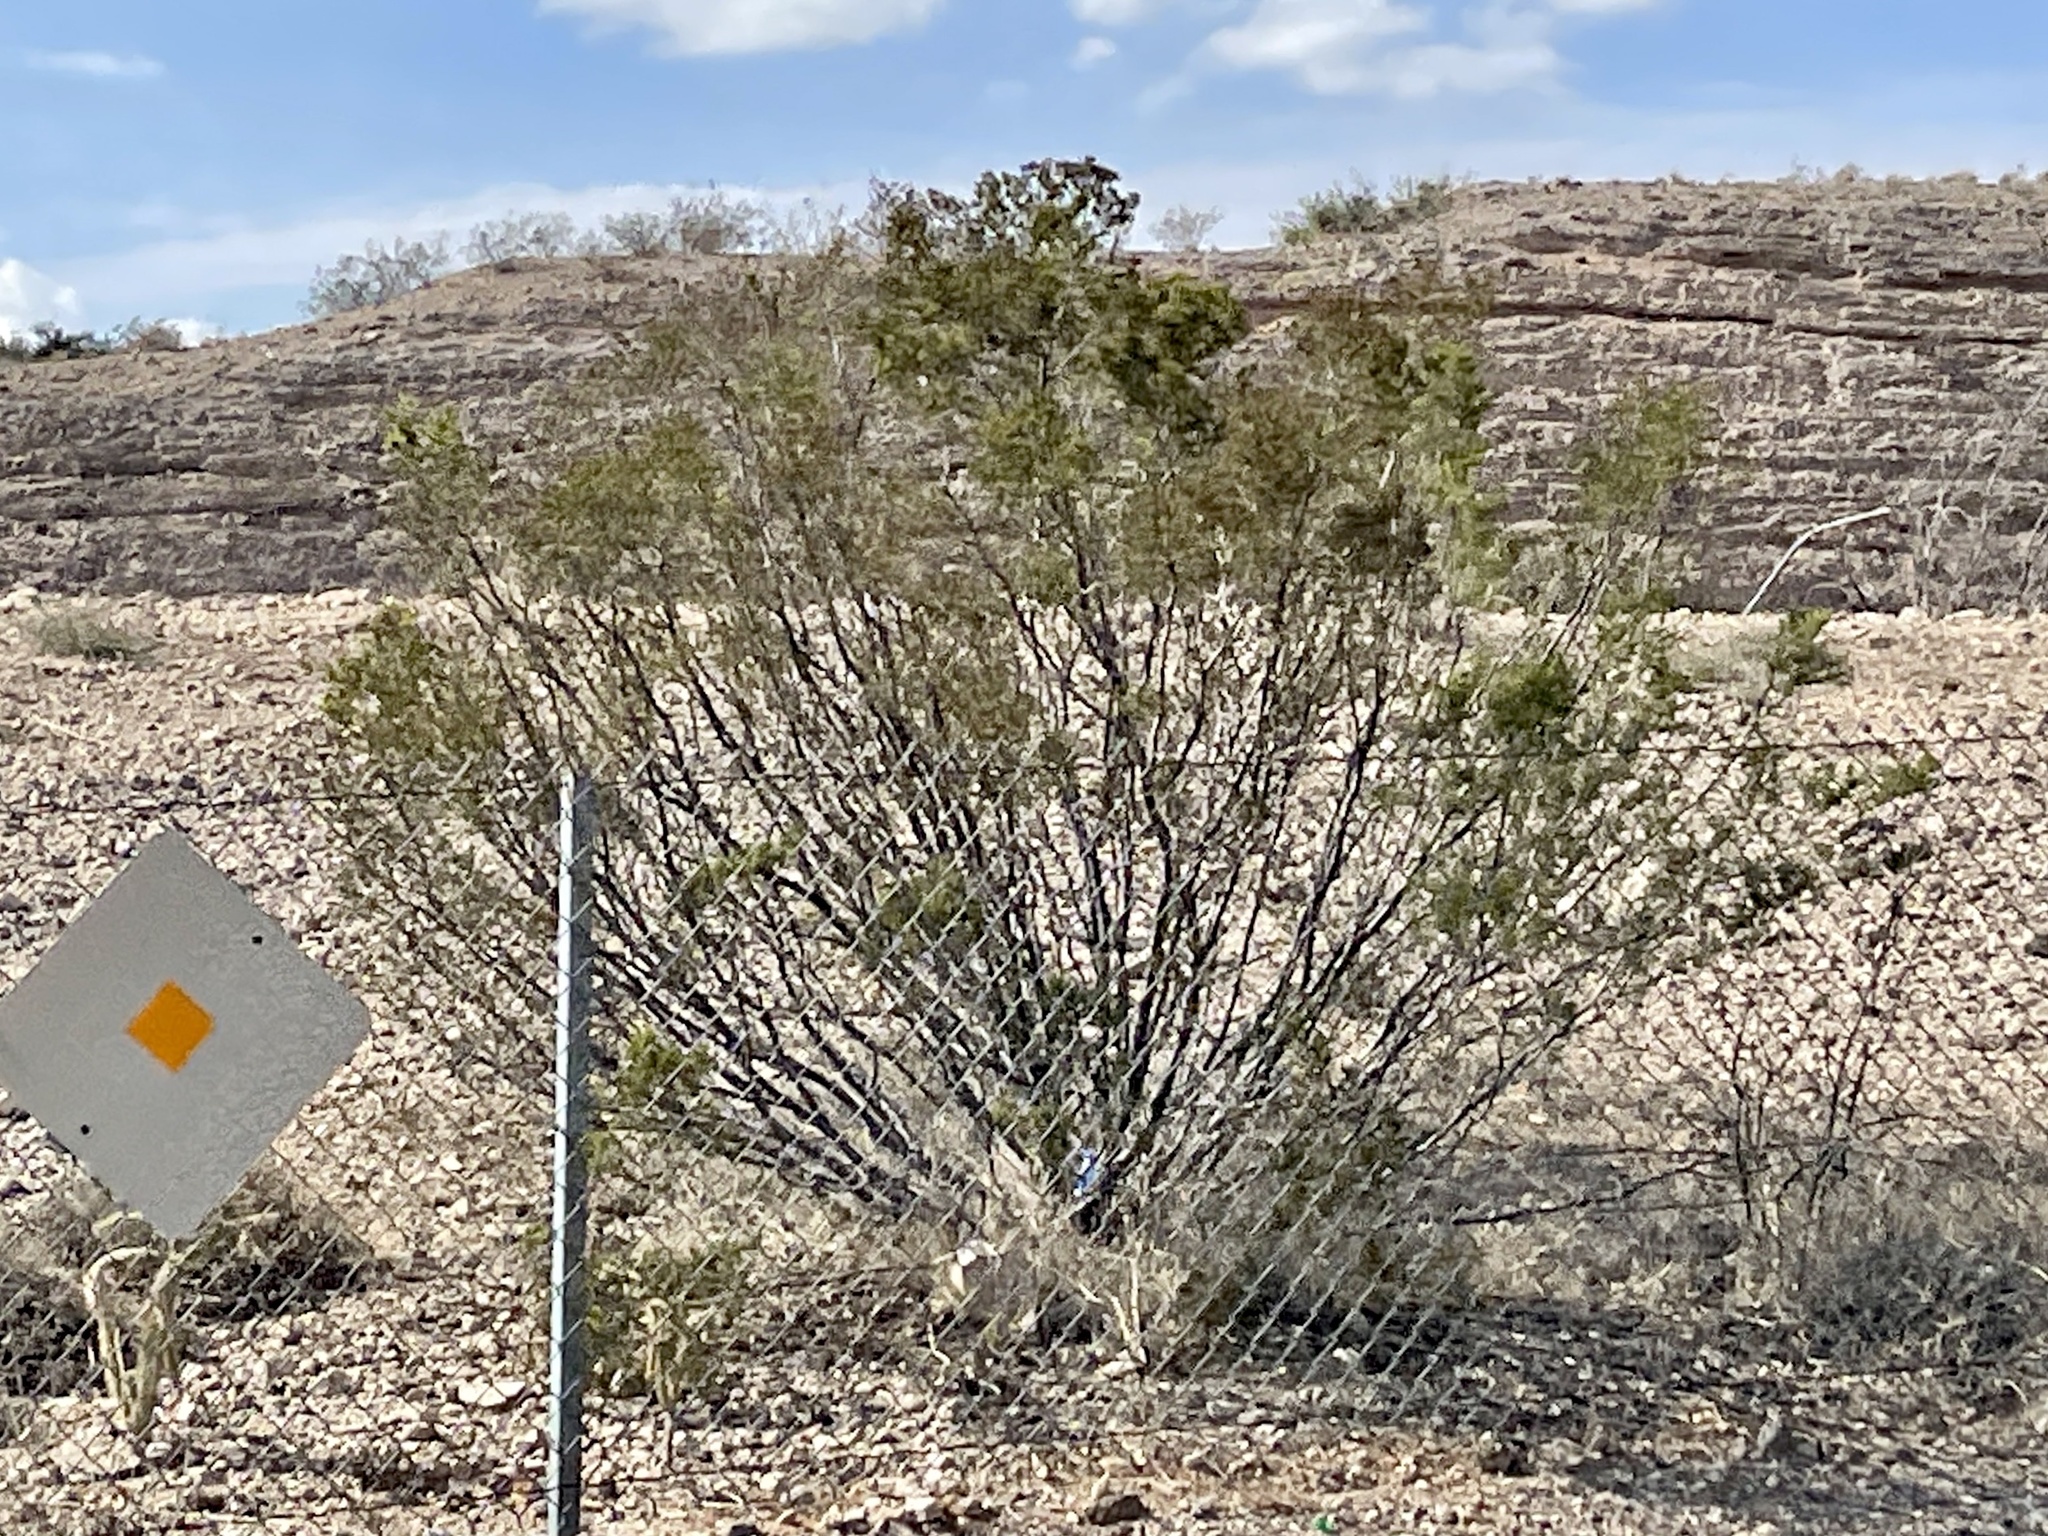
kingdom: Plantae
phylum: Tracheophyta
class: Magnoliopsida
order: Zygophyllales
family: Zygophyllaceae
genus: Larrea
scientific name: Larrea tridentata
